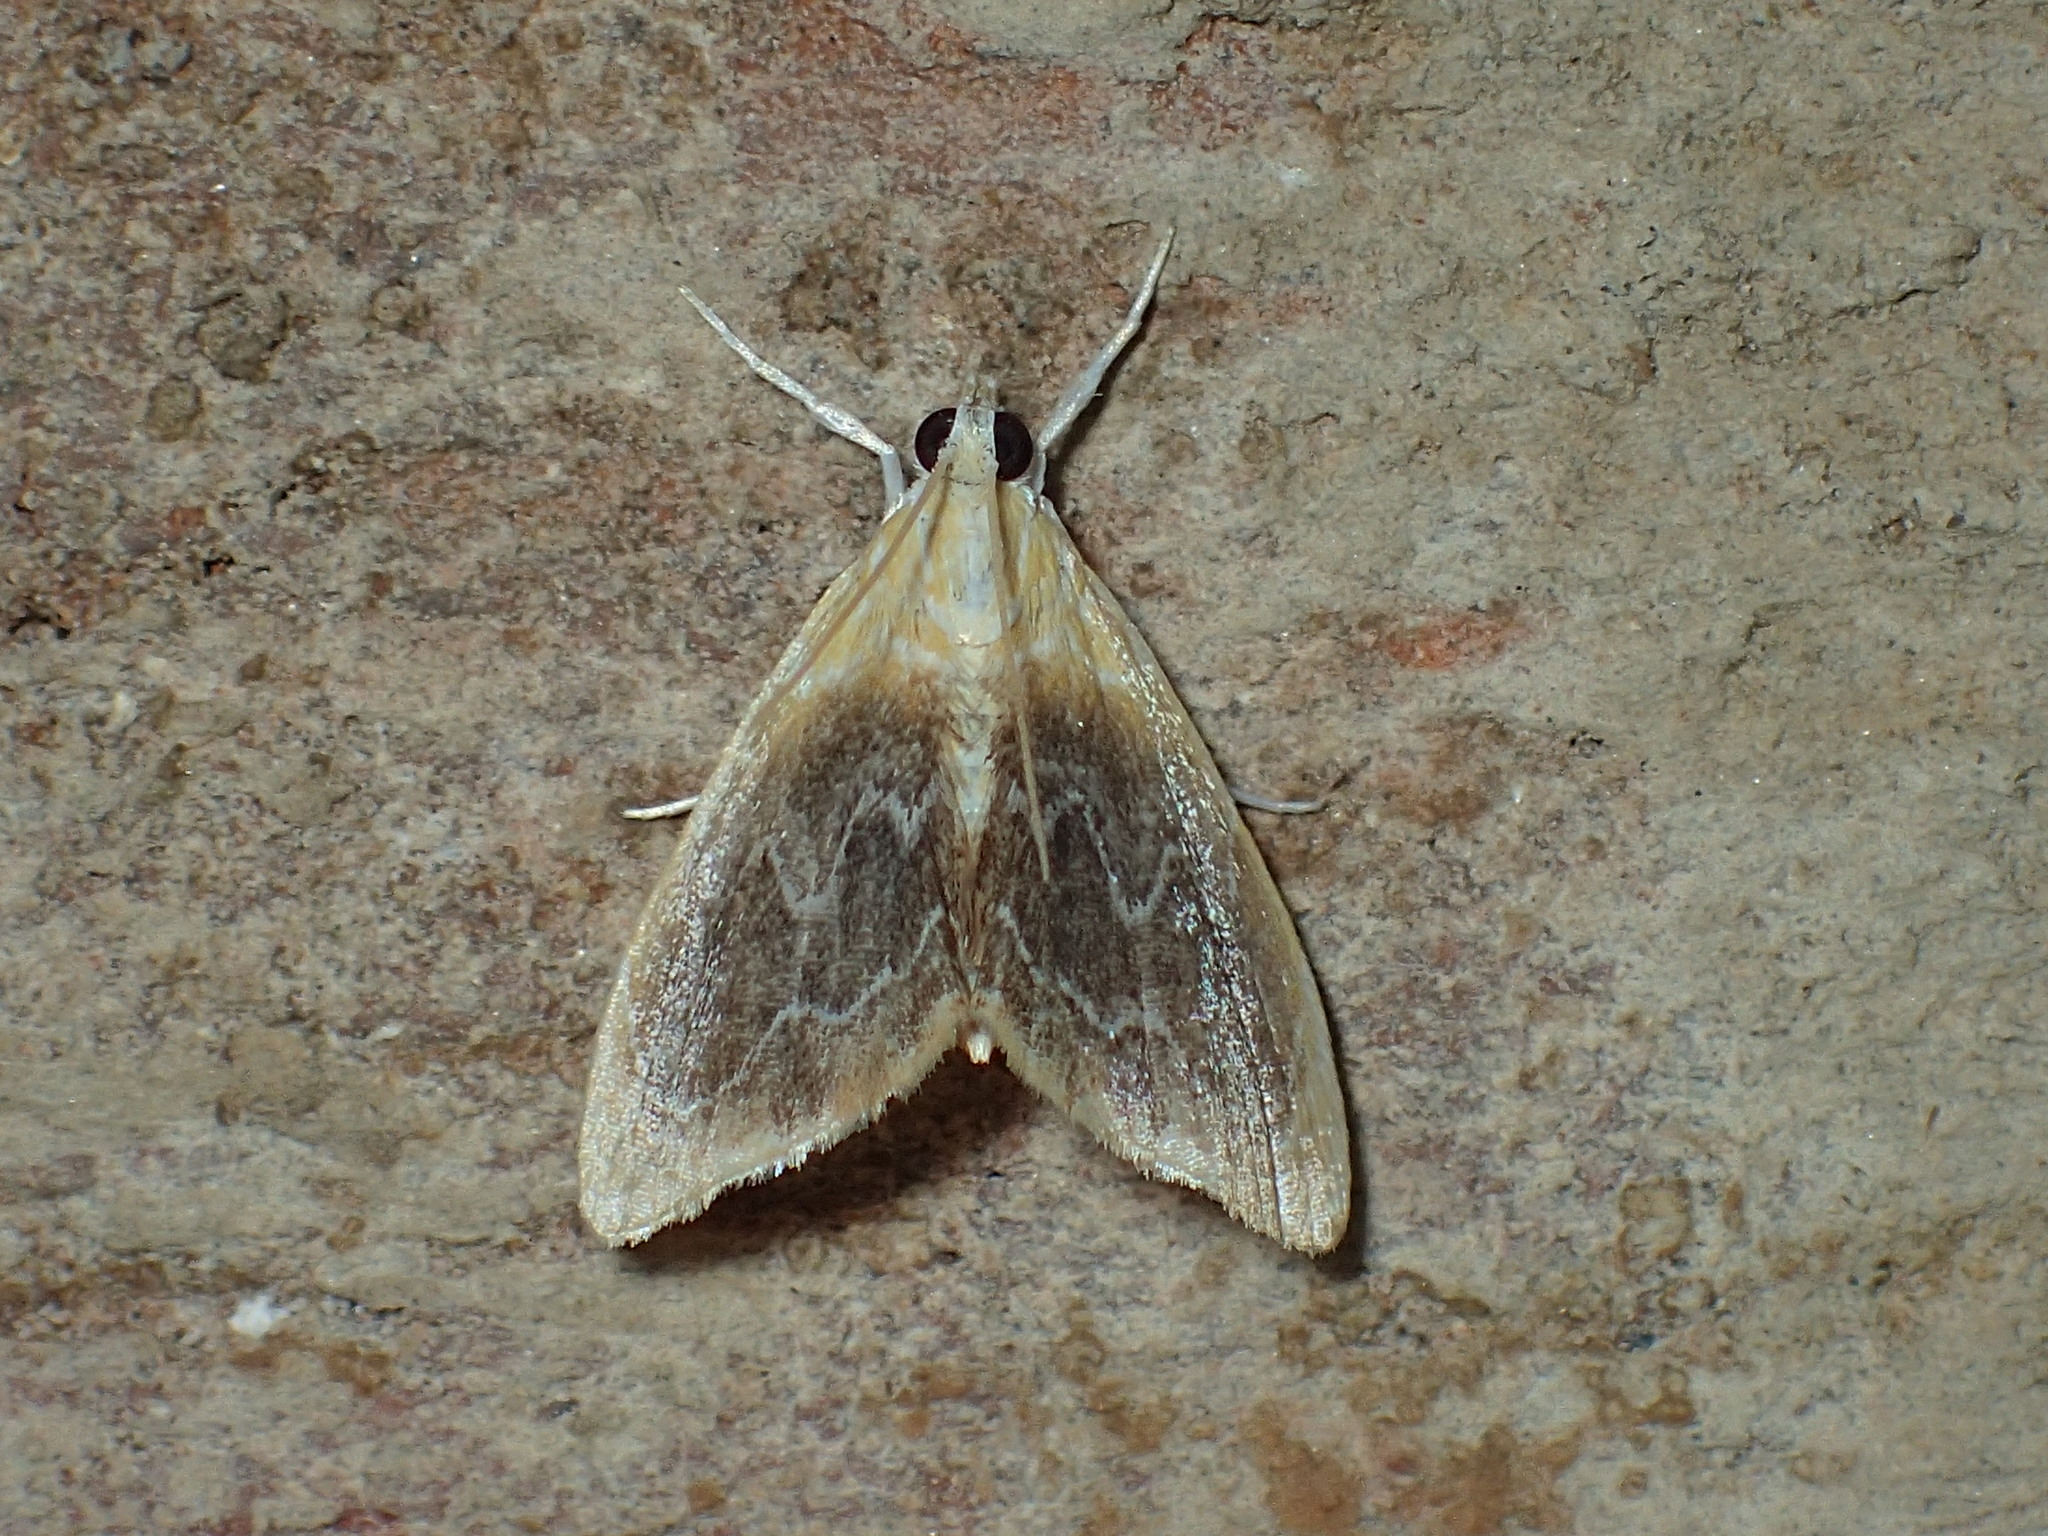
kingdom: Animalia
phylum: Arthropoda
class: Insecta
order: Lepidoptera
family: Crambidae
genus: Glaphyria
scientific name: Glaphyria fulminalis
